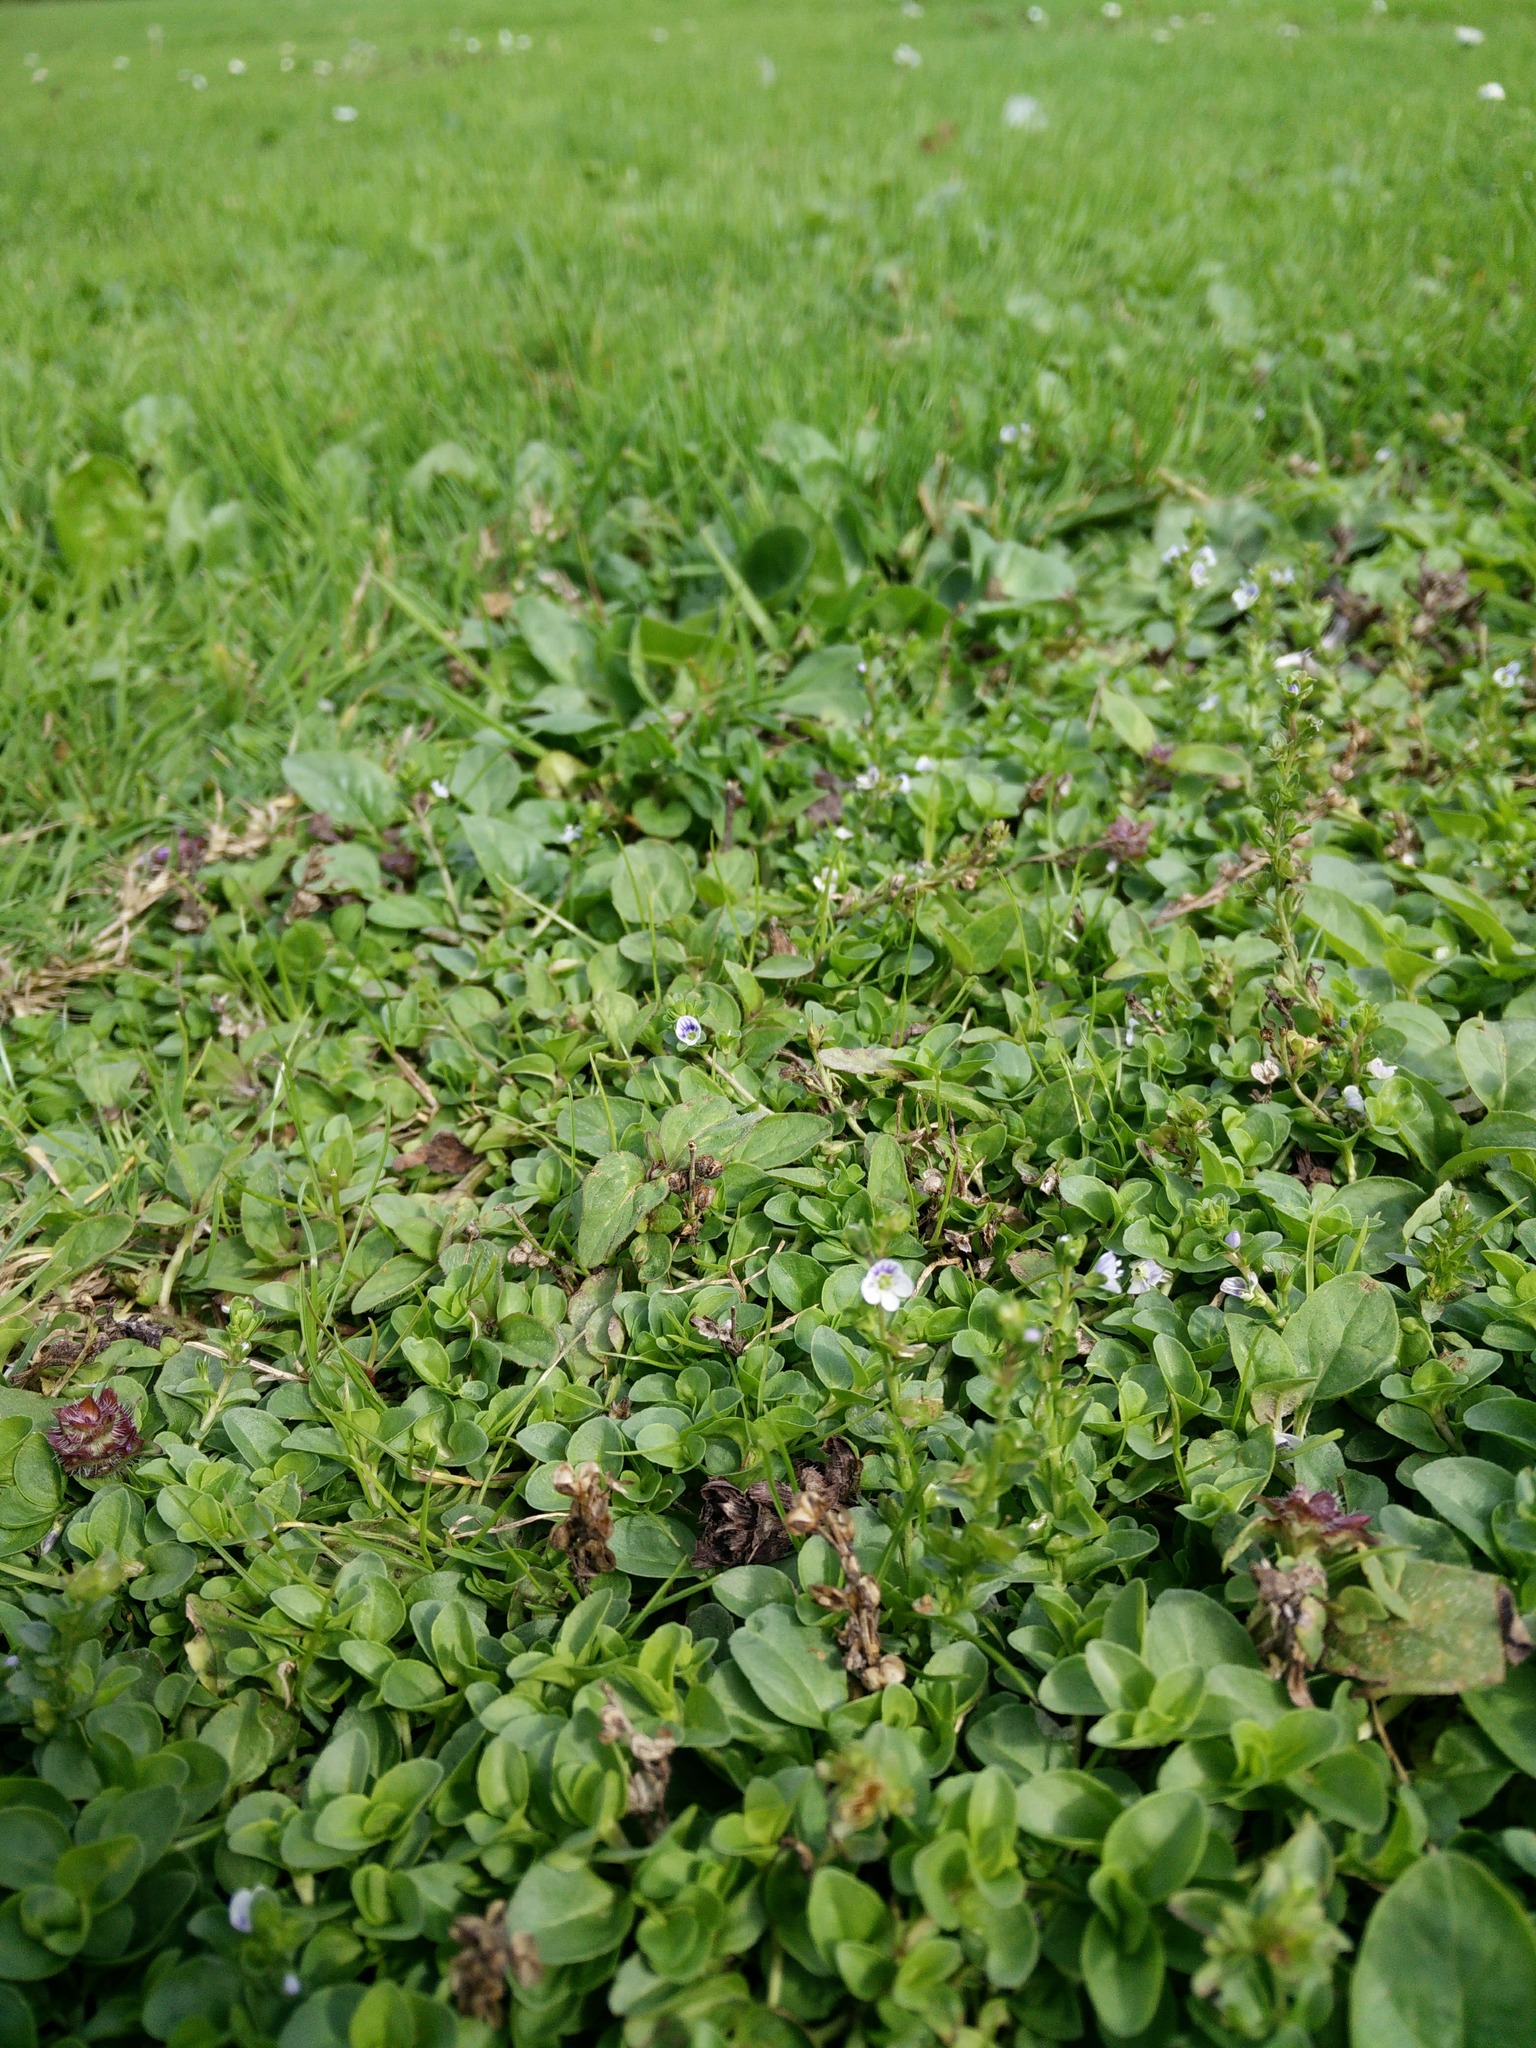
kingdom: Plantae
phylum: Tracheophyta
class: Magnoliopsida
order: Lamiales
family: Plantaginaceae
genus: Veronica
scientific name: Veronica serpyllifolia
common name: Thyme-leaved speedwell
